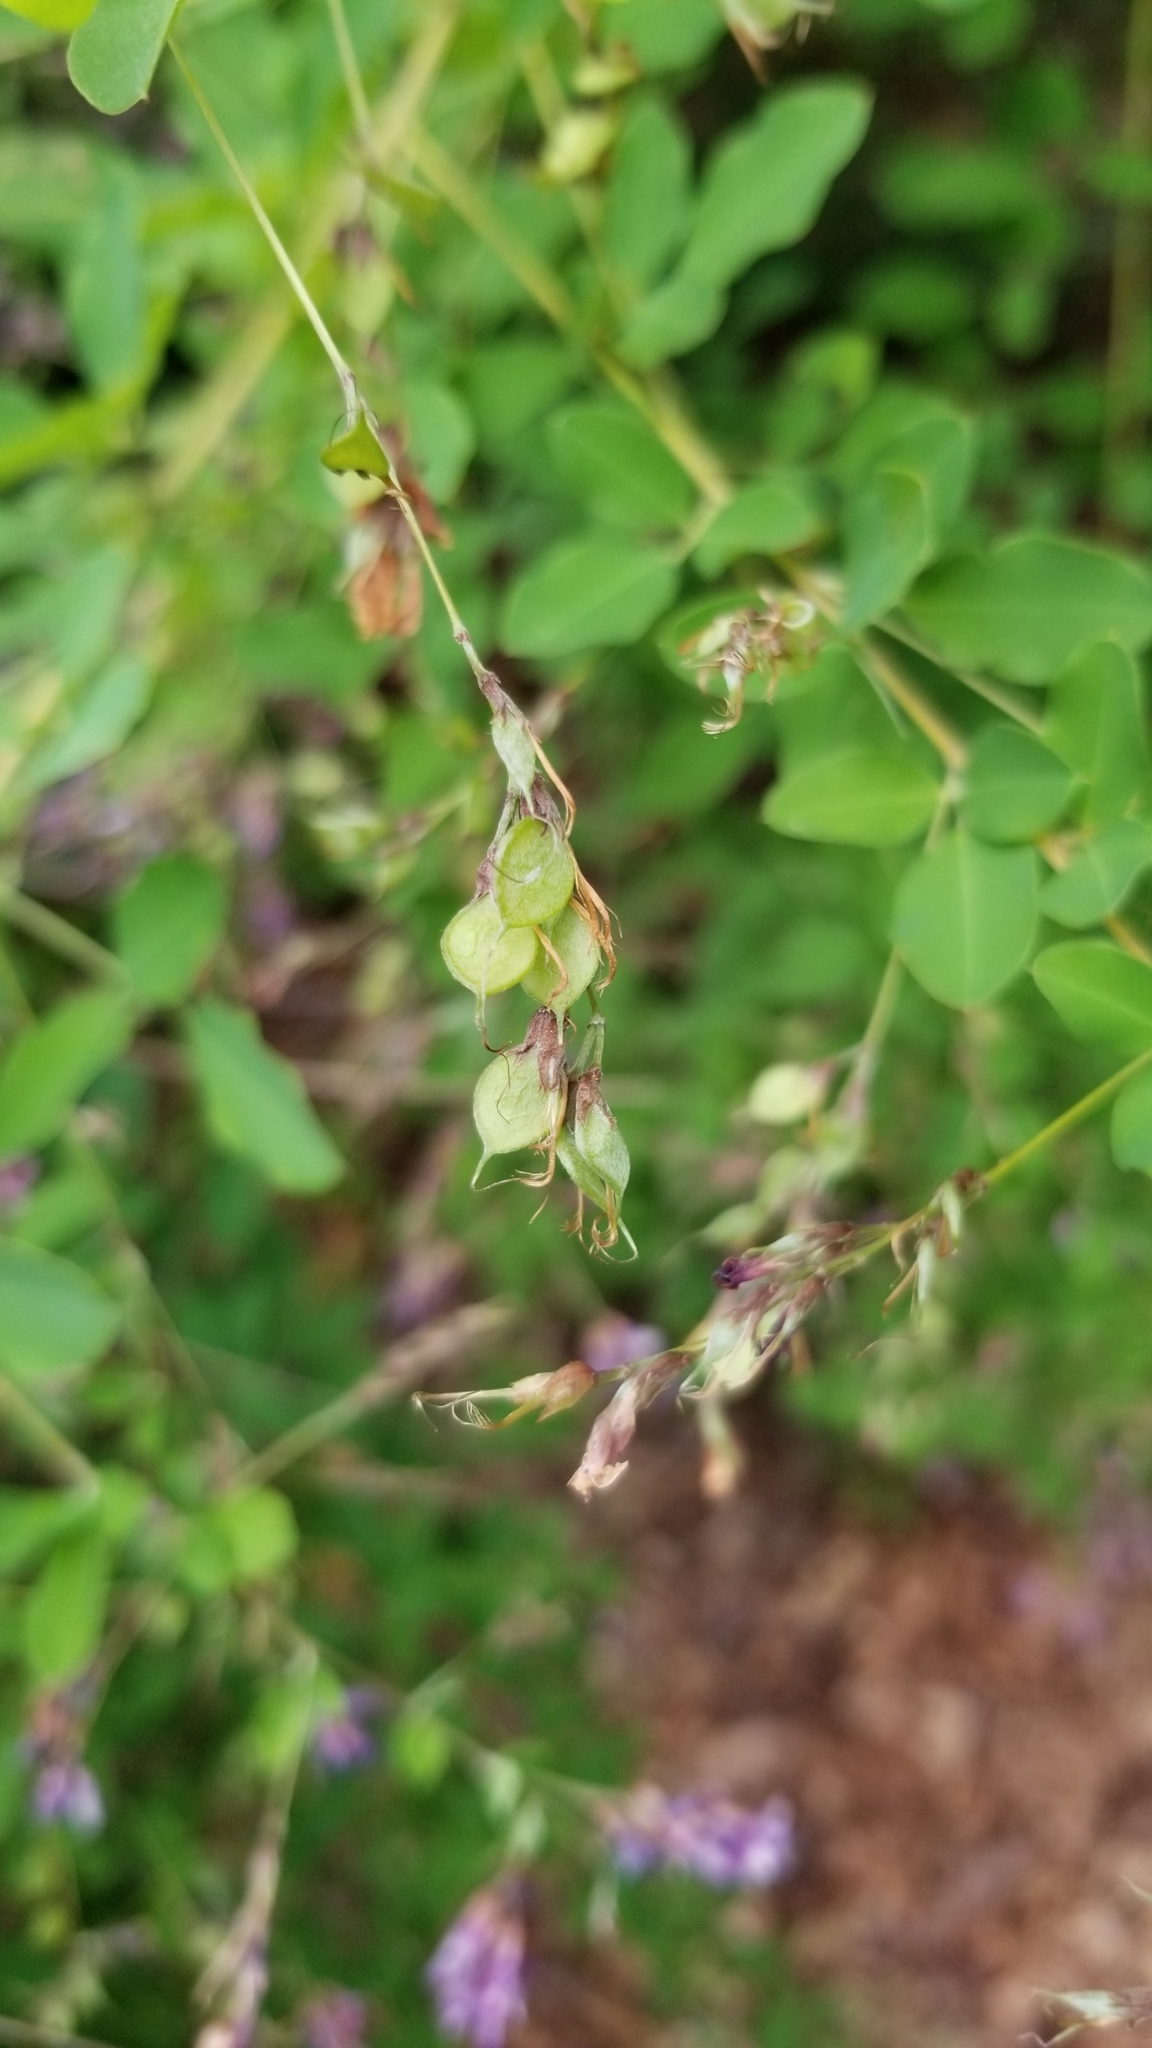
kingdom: Plantae
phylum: Tracheophyta
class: Magnoliopsida
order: Fabales
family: Fabaceae
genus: Lespedeza
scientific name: Lespedeza bicolor
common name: Shrub lespedeza
